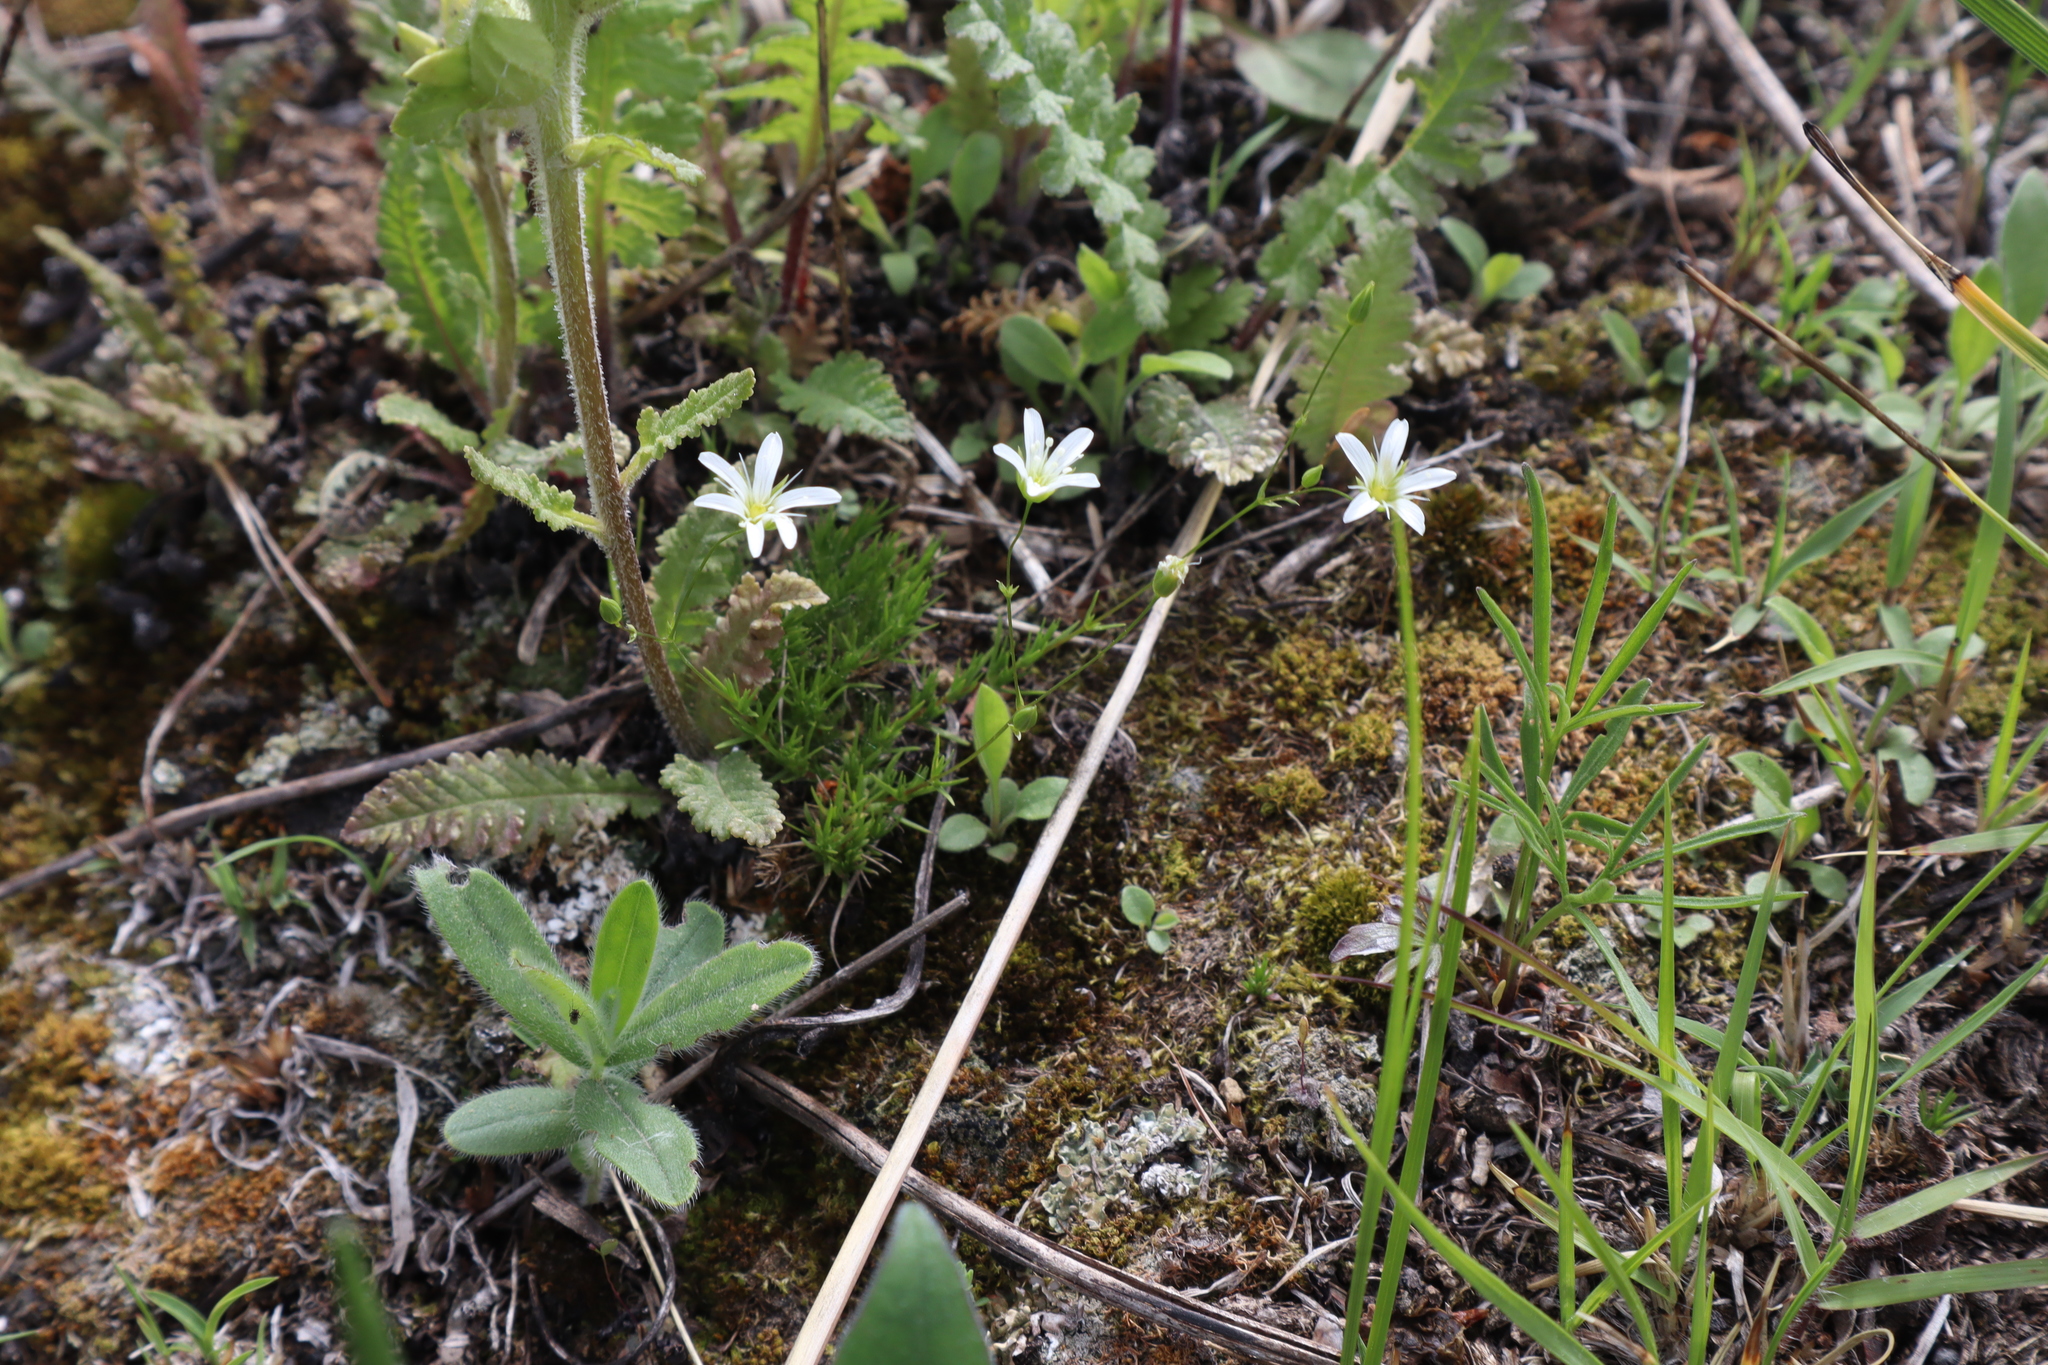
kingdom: Plantae
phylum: Tracheophyta
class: Magnoliopsida
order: Caryophyllales
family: Caryophyllaceae
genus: Sabulina
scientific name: Sabulina michauxii
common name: Michaux's stitchwort
